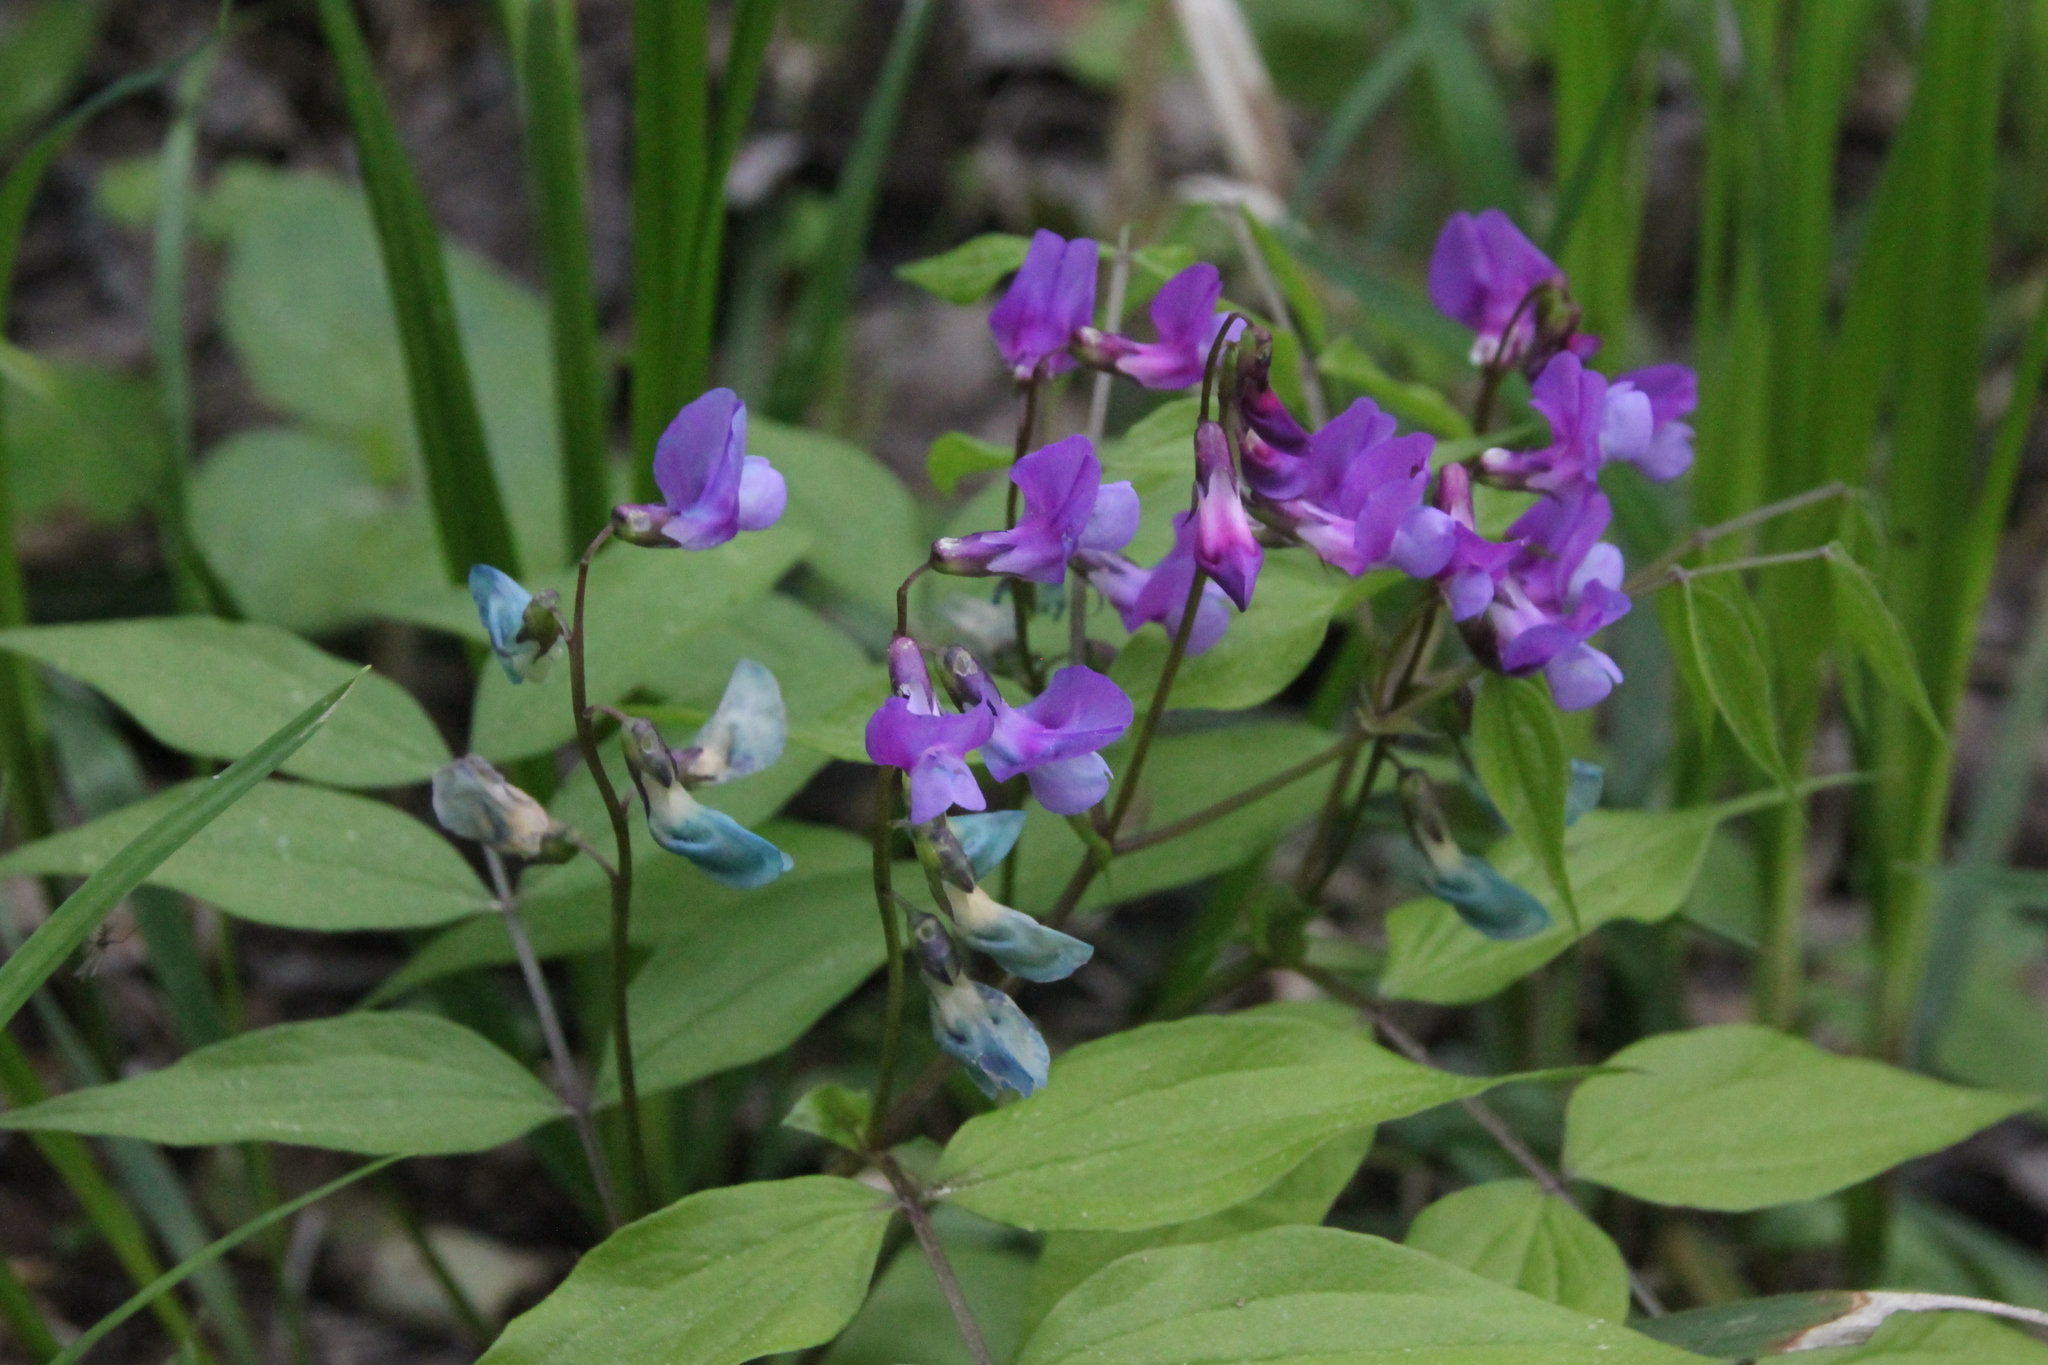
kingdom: Plantae
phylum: Tracheophyta
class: Magnoliopsida
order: Fabales
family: Fabaceae
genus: Lathyrus
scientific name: Lathyrus vernus
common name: Spring pea
